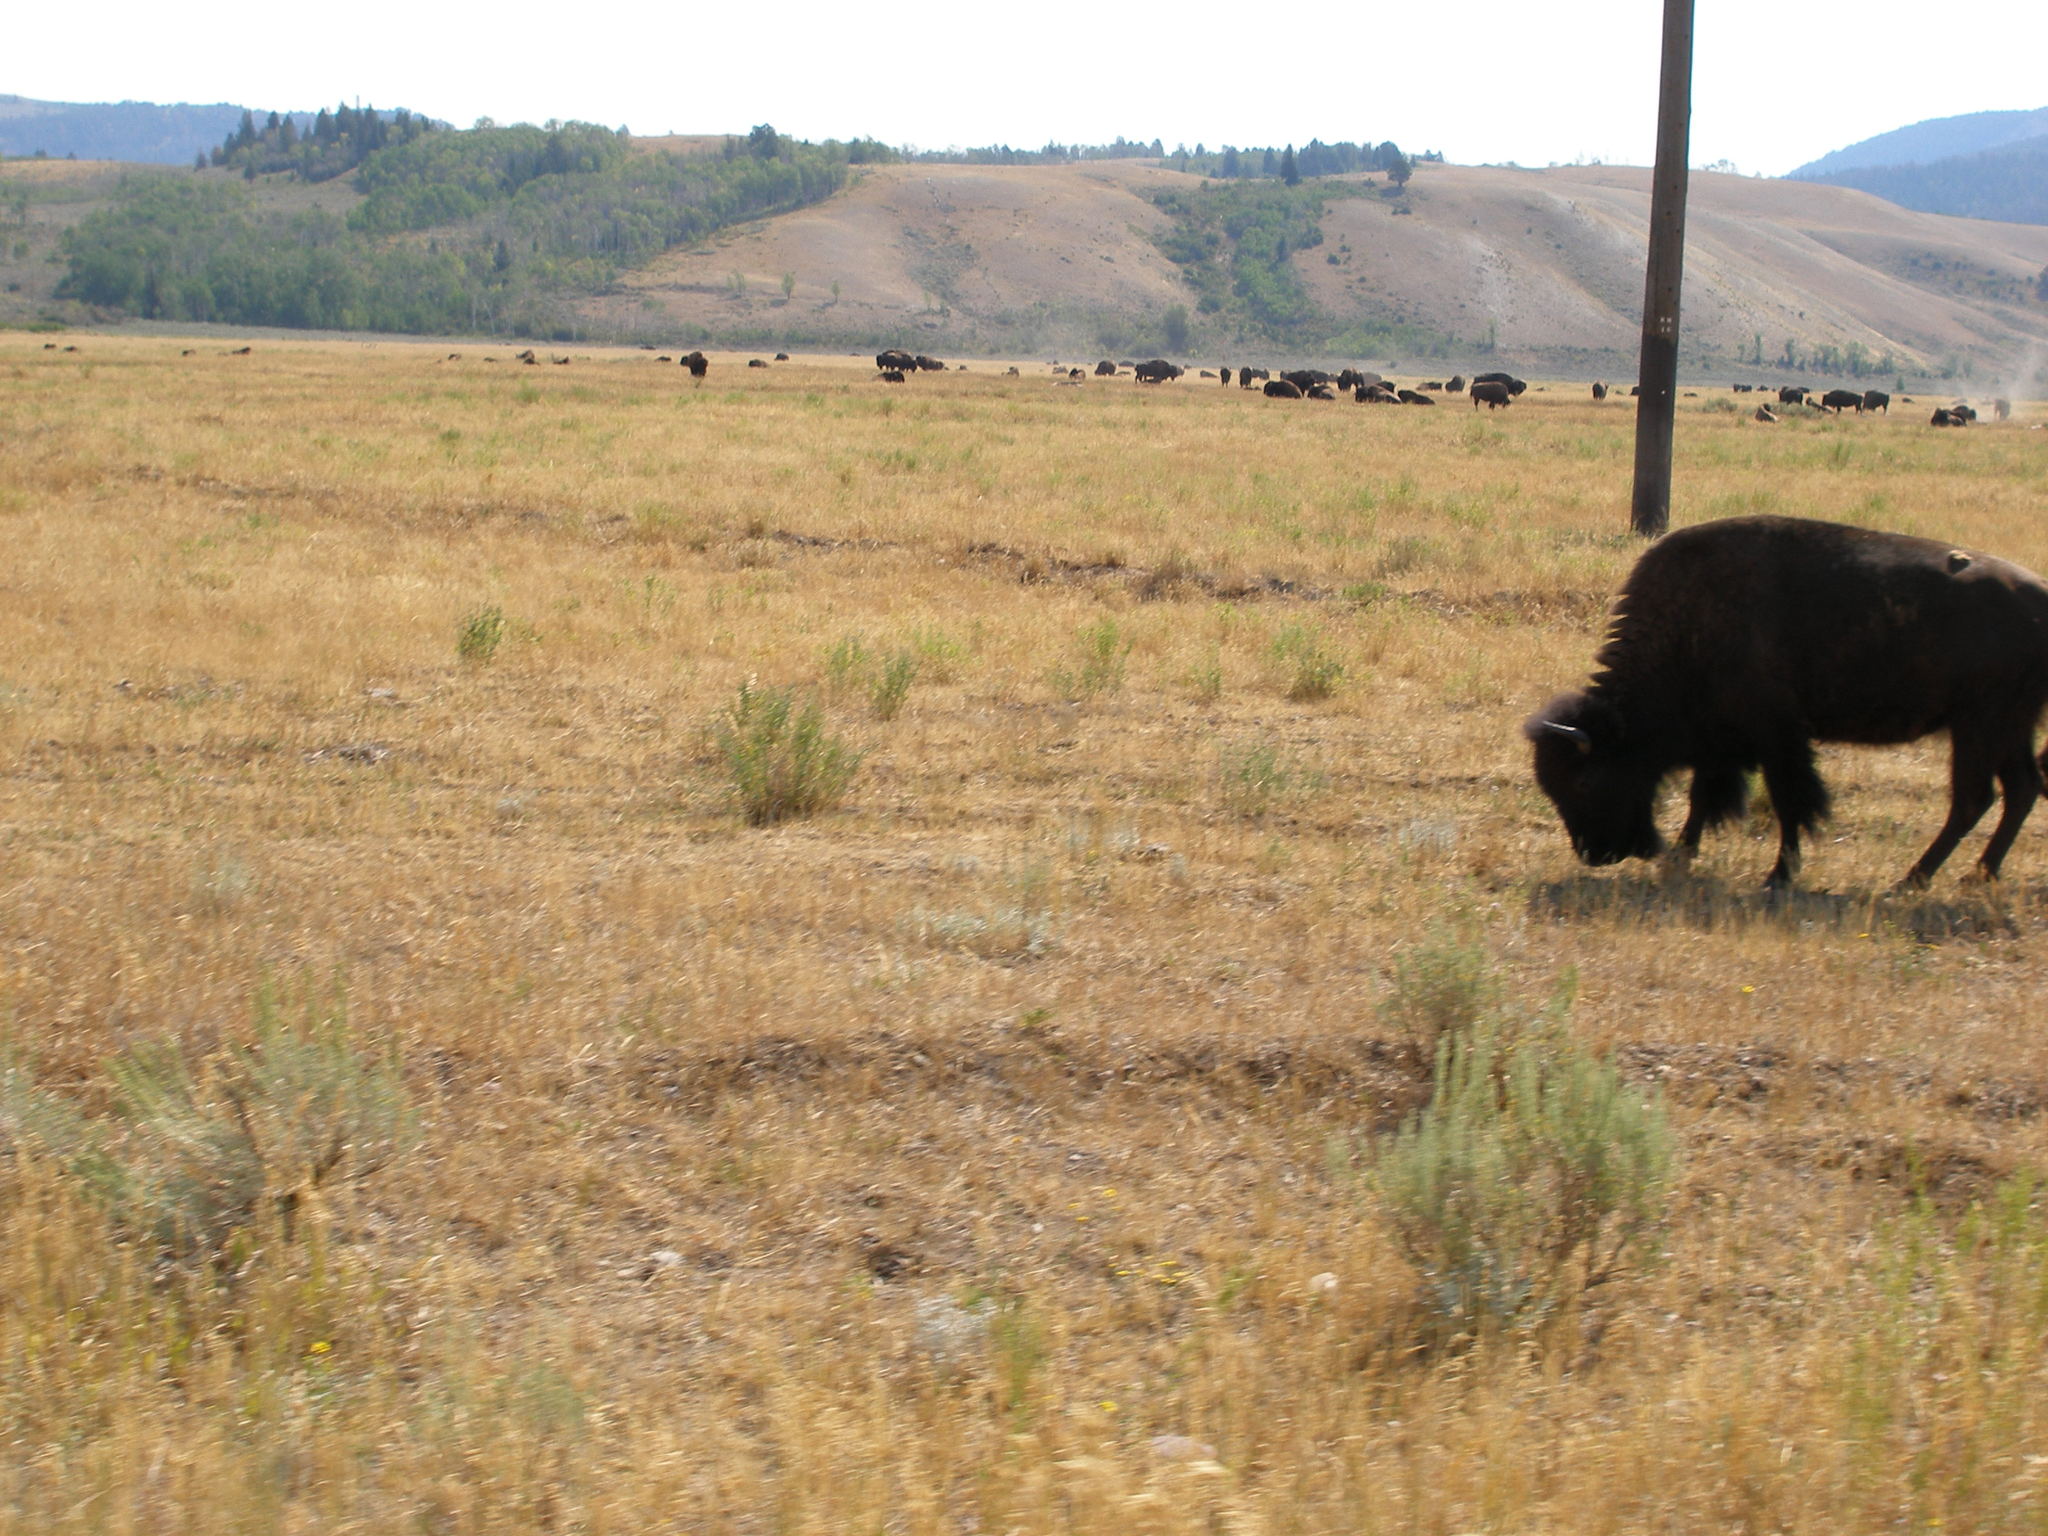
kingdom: Animalia
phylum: Chordata
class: Mammalia
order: Artiodactyla
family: Bovidae
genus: Bison
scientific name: Bison bison
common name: American bison
